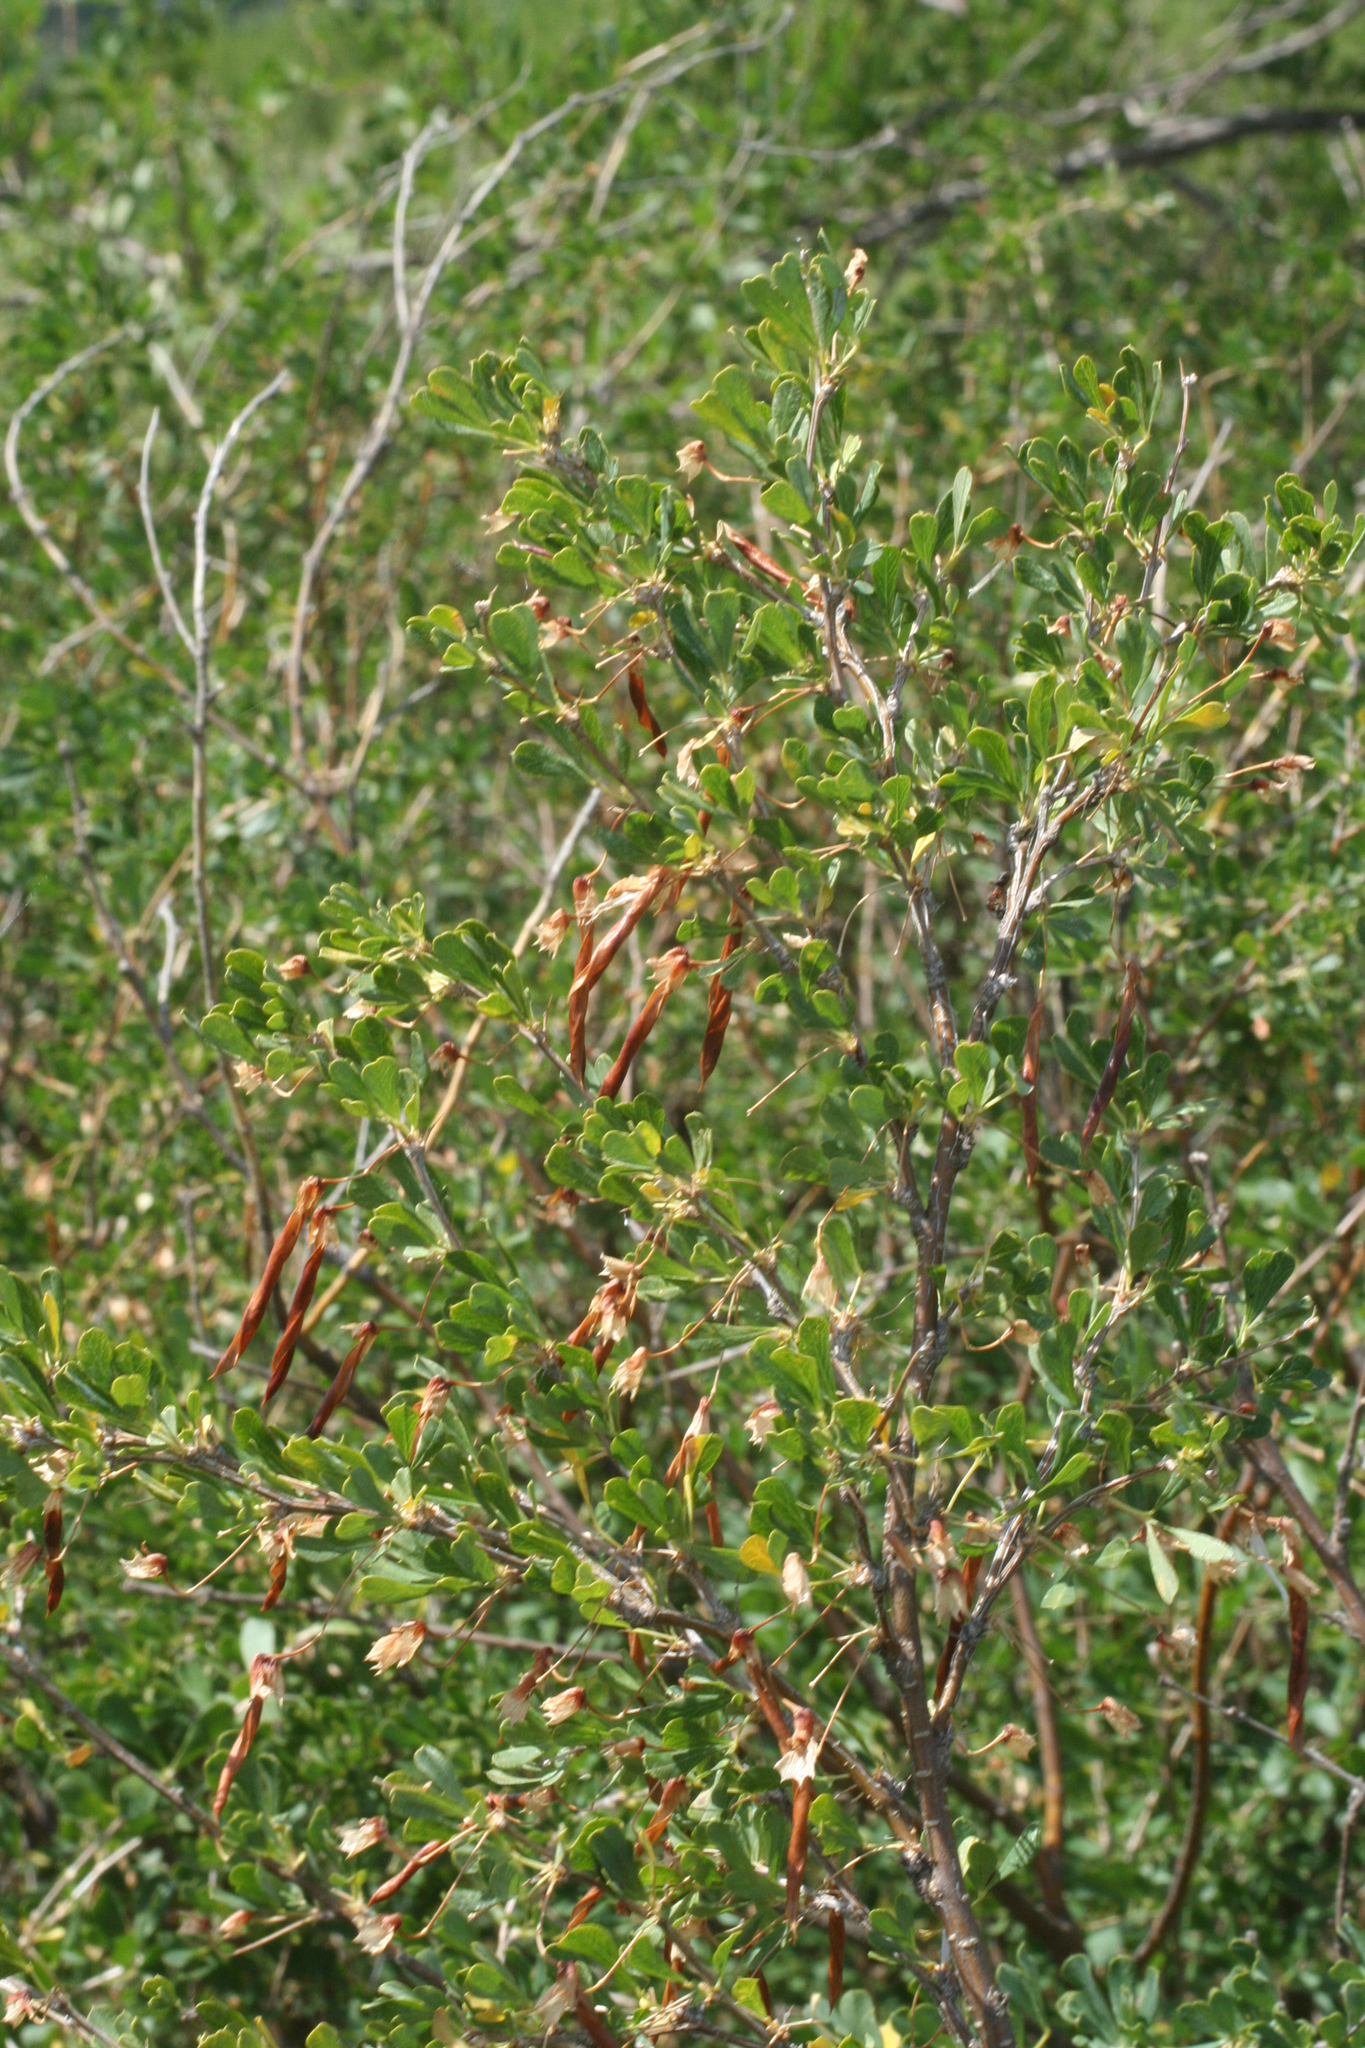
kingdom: Plantae
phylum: Tracheophyta
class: Magnoliopsida
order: Fabales
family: Fabaceae
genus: Caragana
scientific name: Caragana frutex
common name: Russian peashrub
